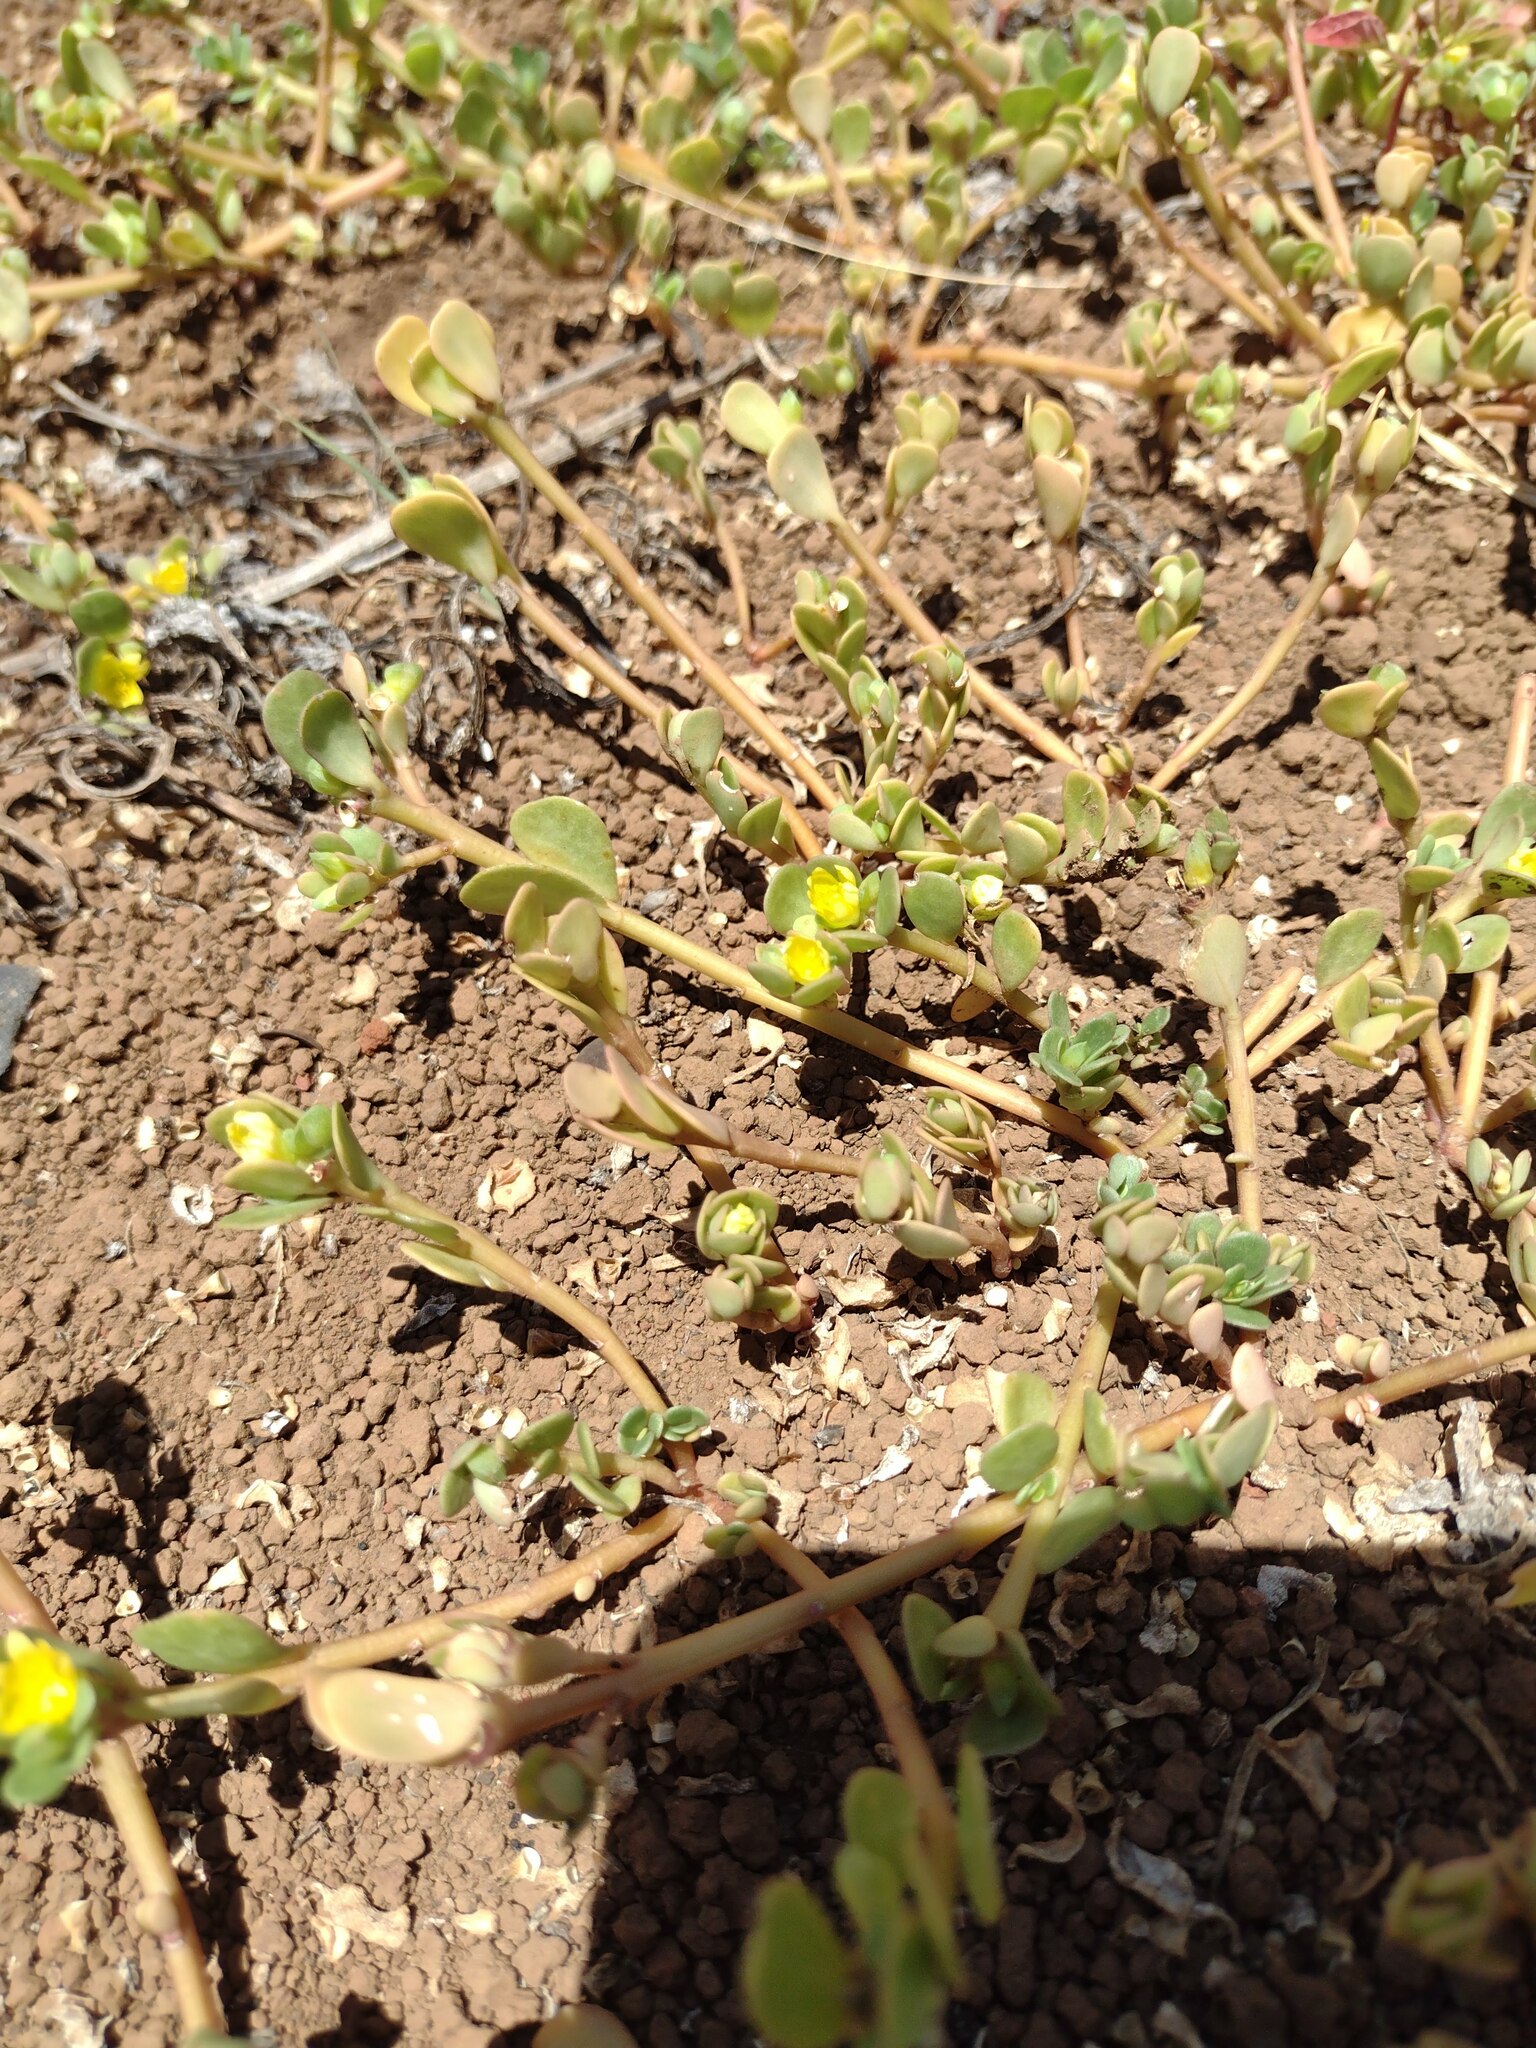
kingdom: Plantae
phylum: Tracheophyta
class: Magnoliopsida
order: Caryophyllales
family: Portulacaceae
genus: Portulaca
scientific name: Portulaca oleracea
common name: Common purslane
